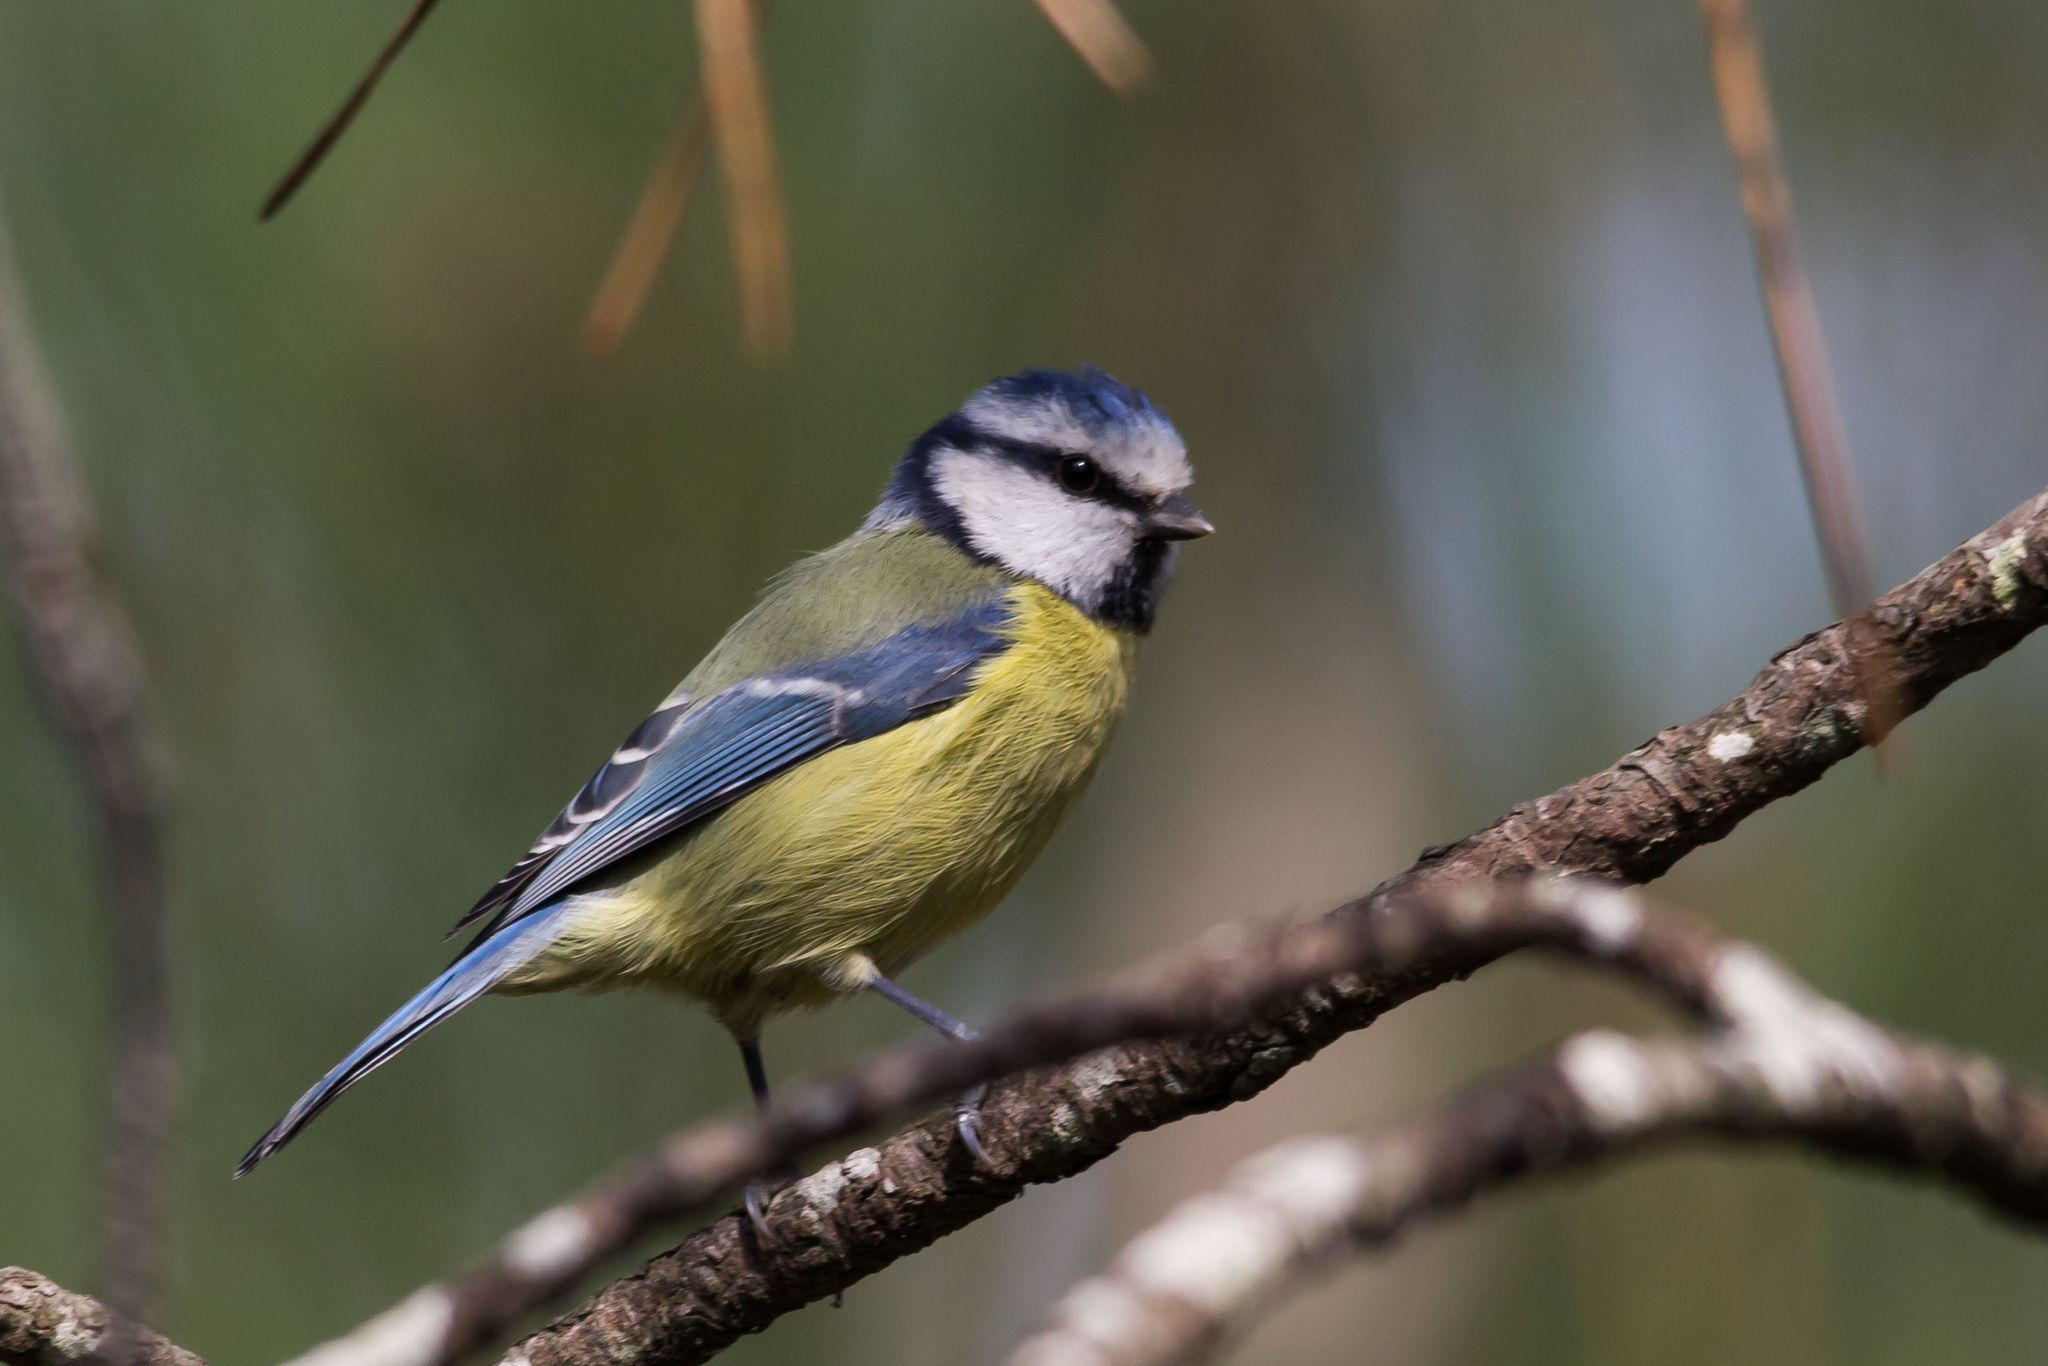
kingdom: Animalia
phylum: Chordata
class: Aves
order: Passeriformes
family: Paridae
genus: Cyanistes
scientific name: Cyanistes caeruleus
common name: Eurasian blue tit
